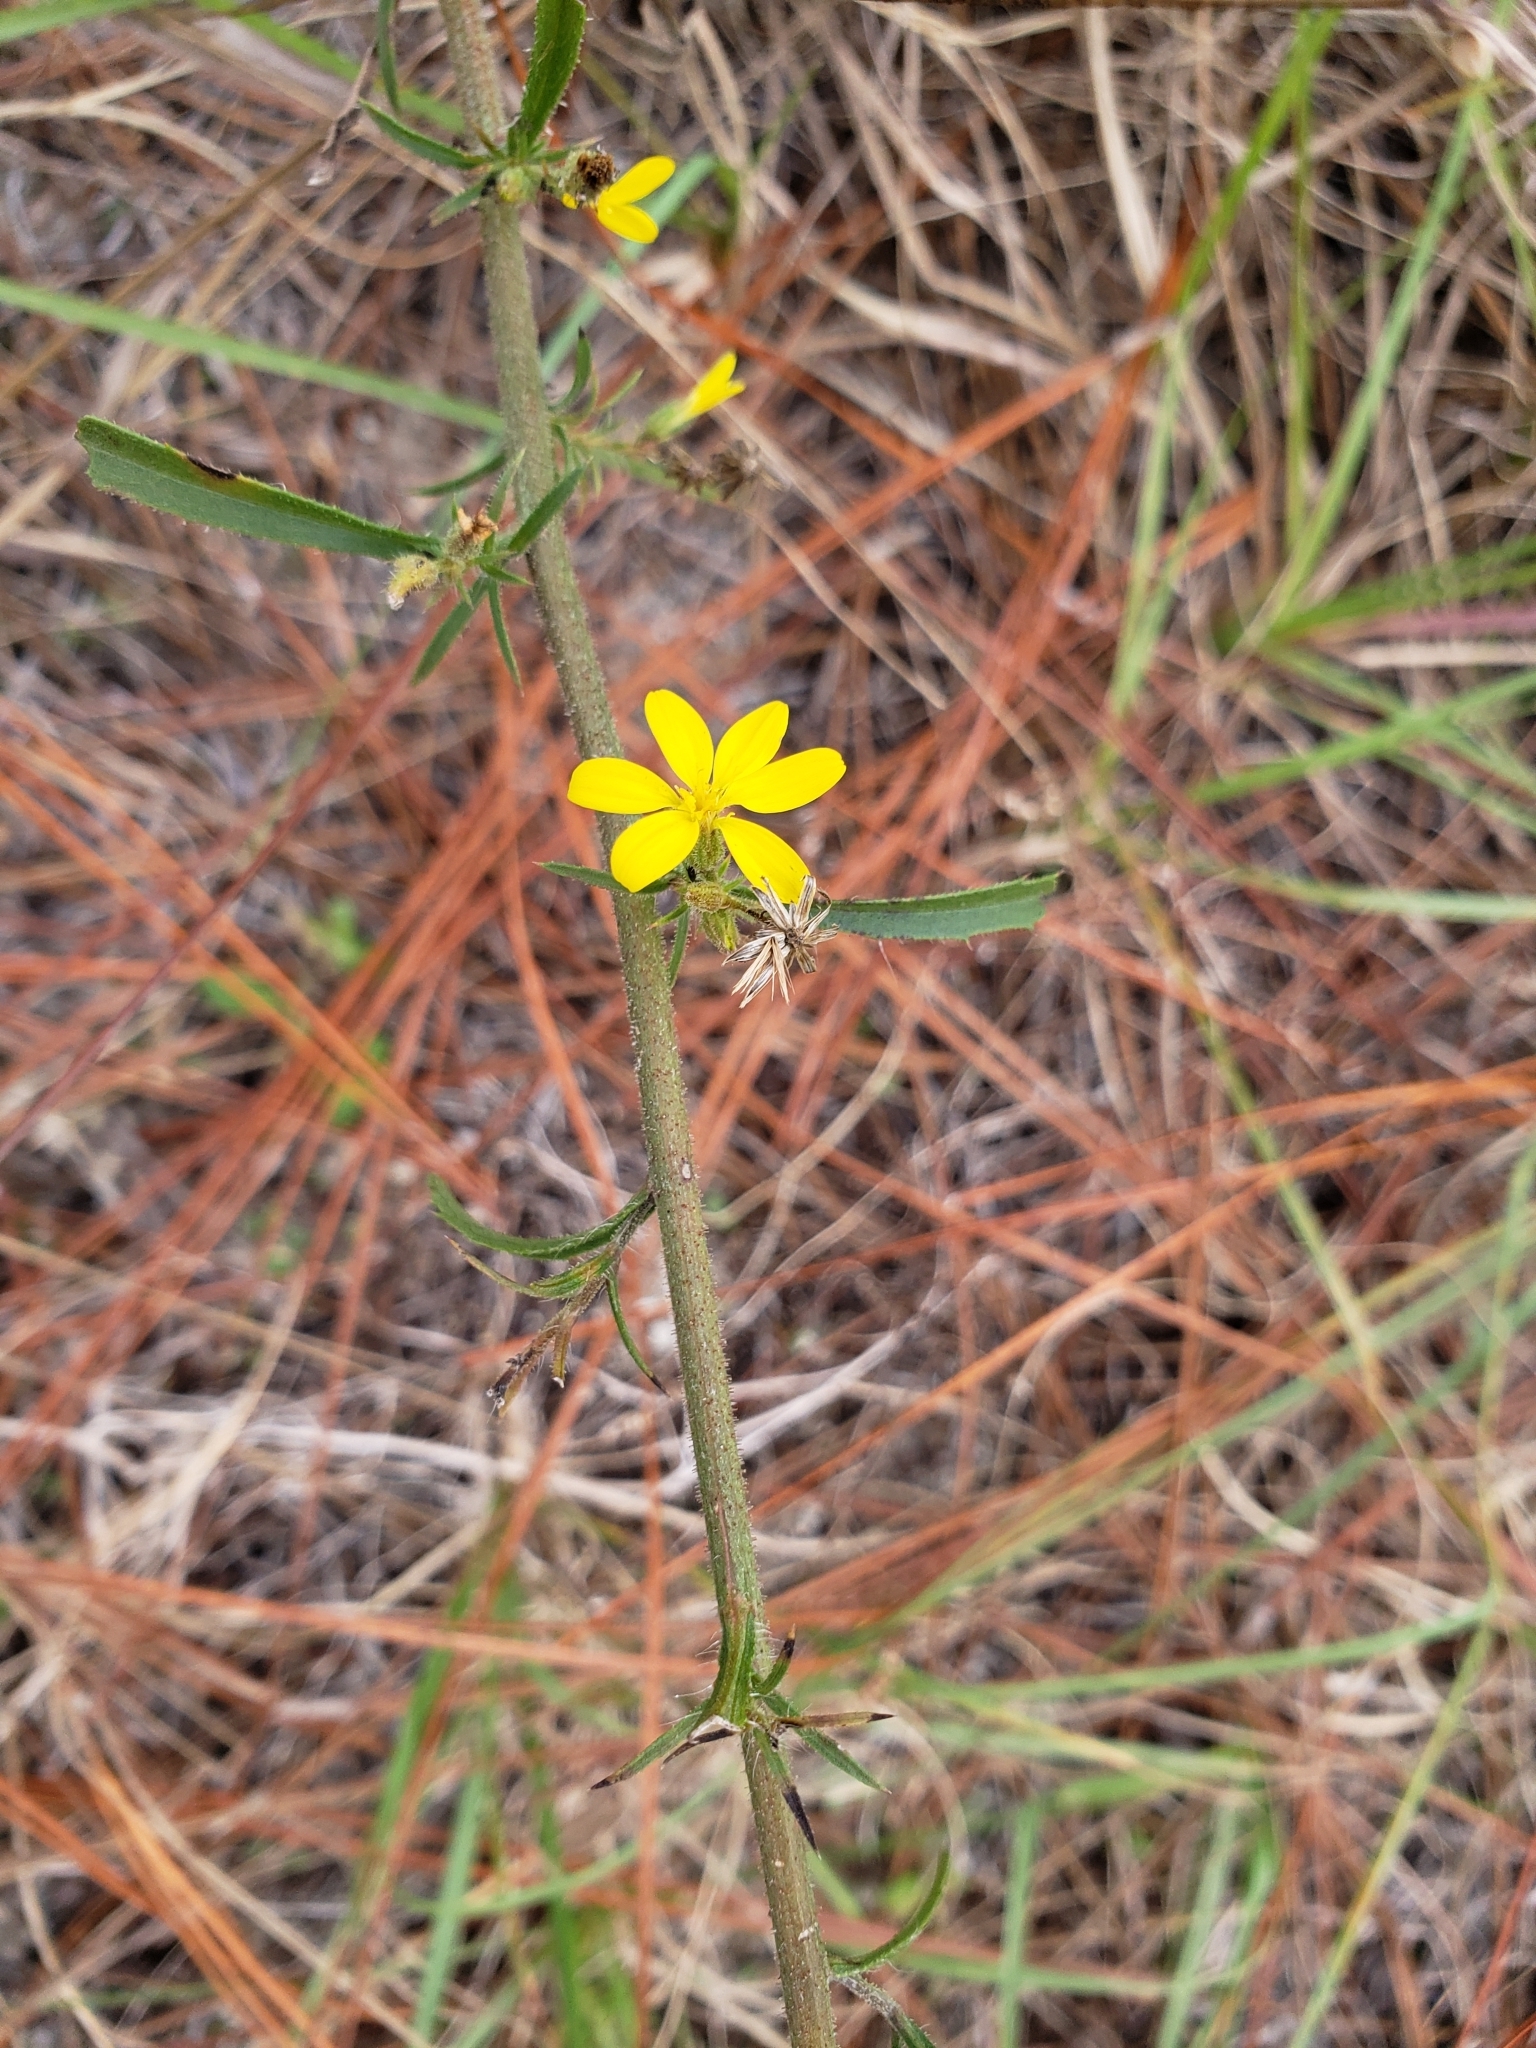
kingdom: Plantae
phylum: Tracheophyta
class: Magnoliopsida
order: Asterales
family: Asteraceae
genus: Croptilon
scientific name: Croptilon divaricatum
